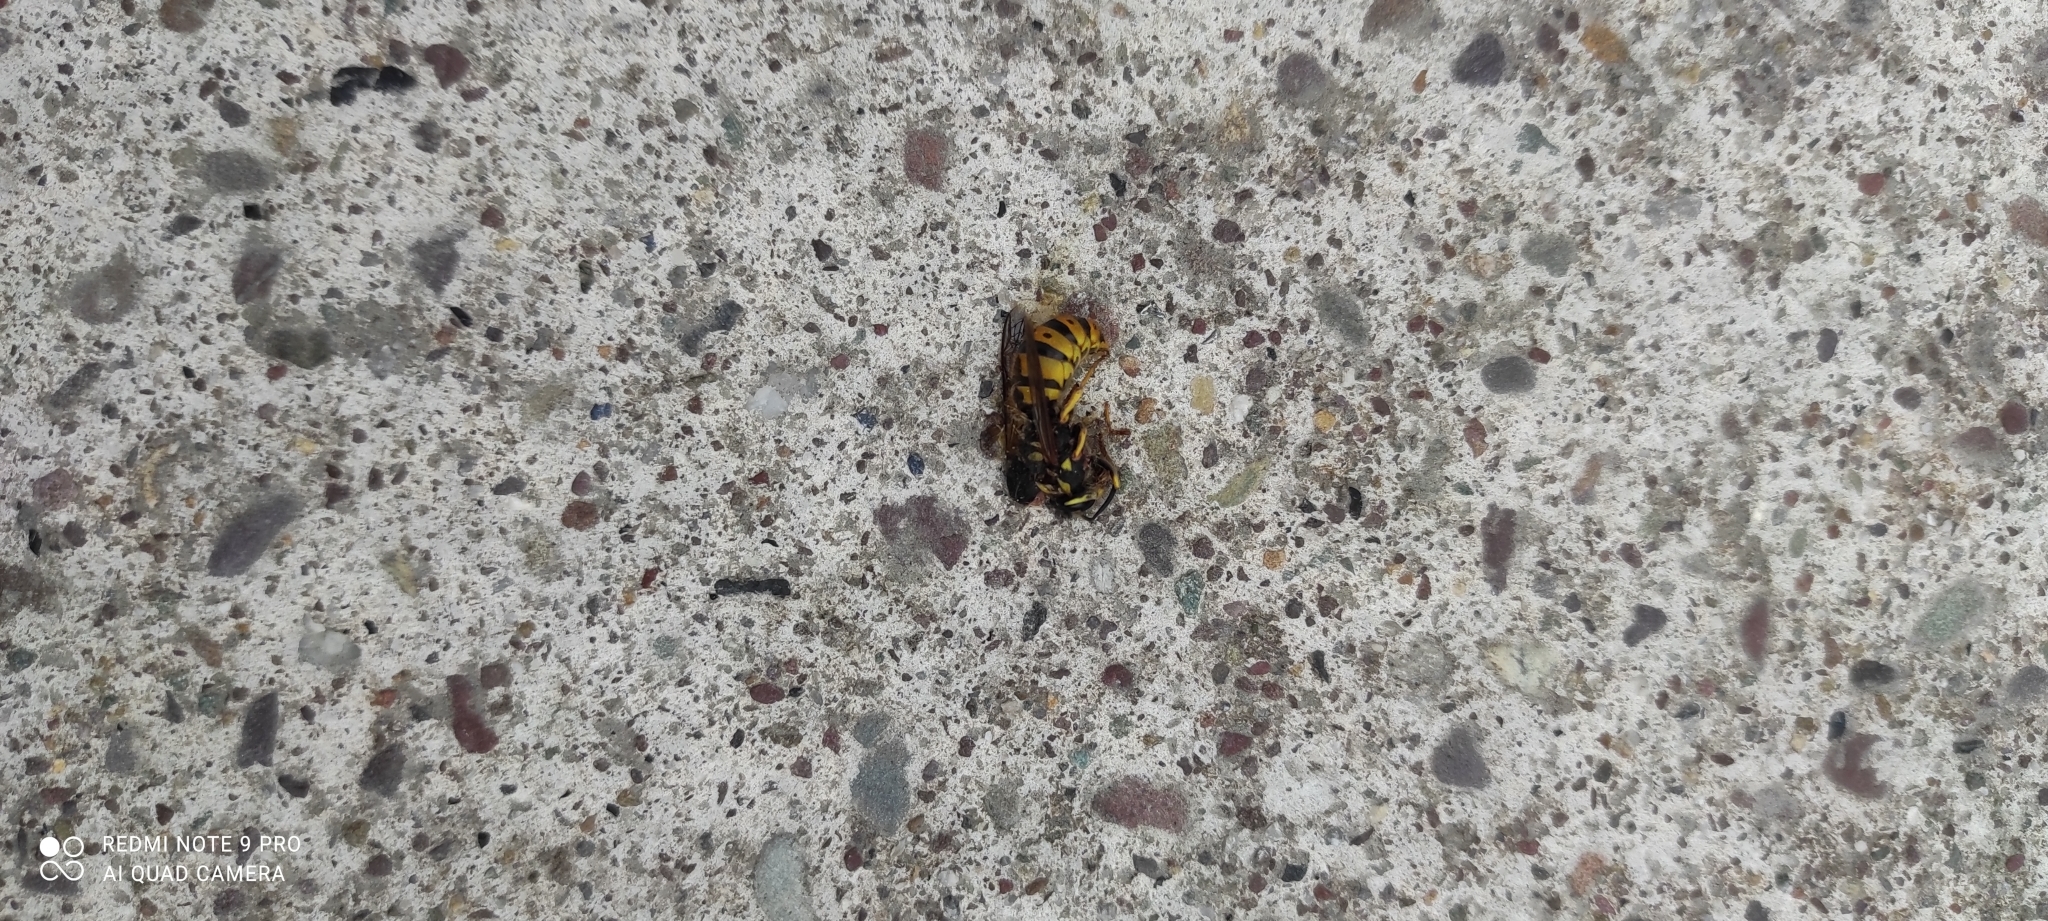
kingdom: Animalia
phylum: Arthropoda
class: Insecta
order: Hymenoptera
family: Vespidae
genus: Vespula
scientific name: Vespula germanica
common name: German wasp
